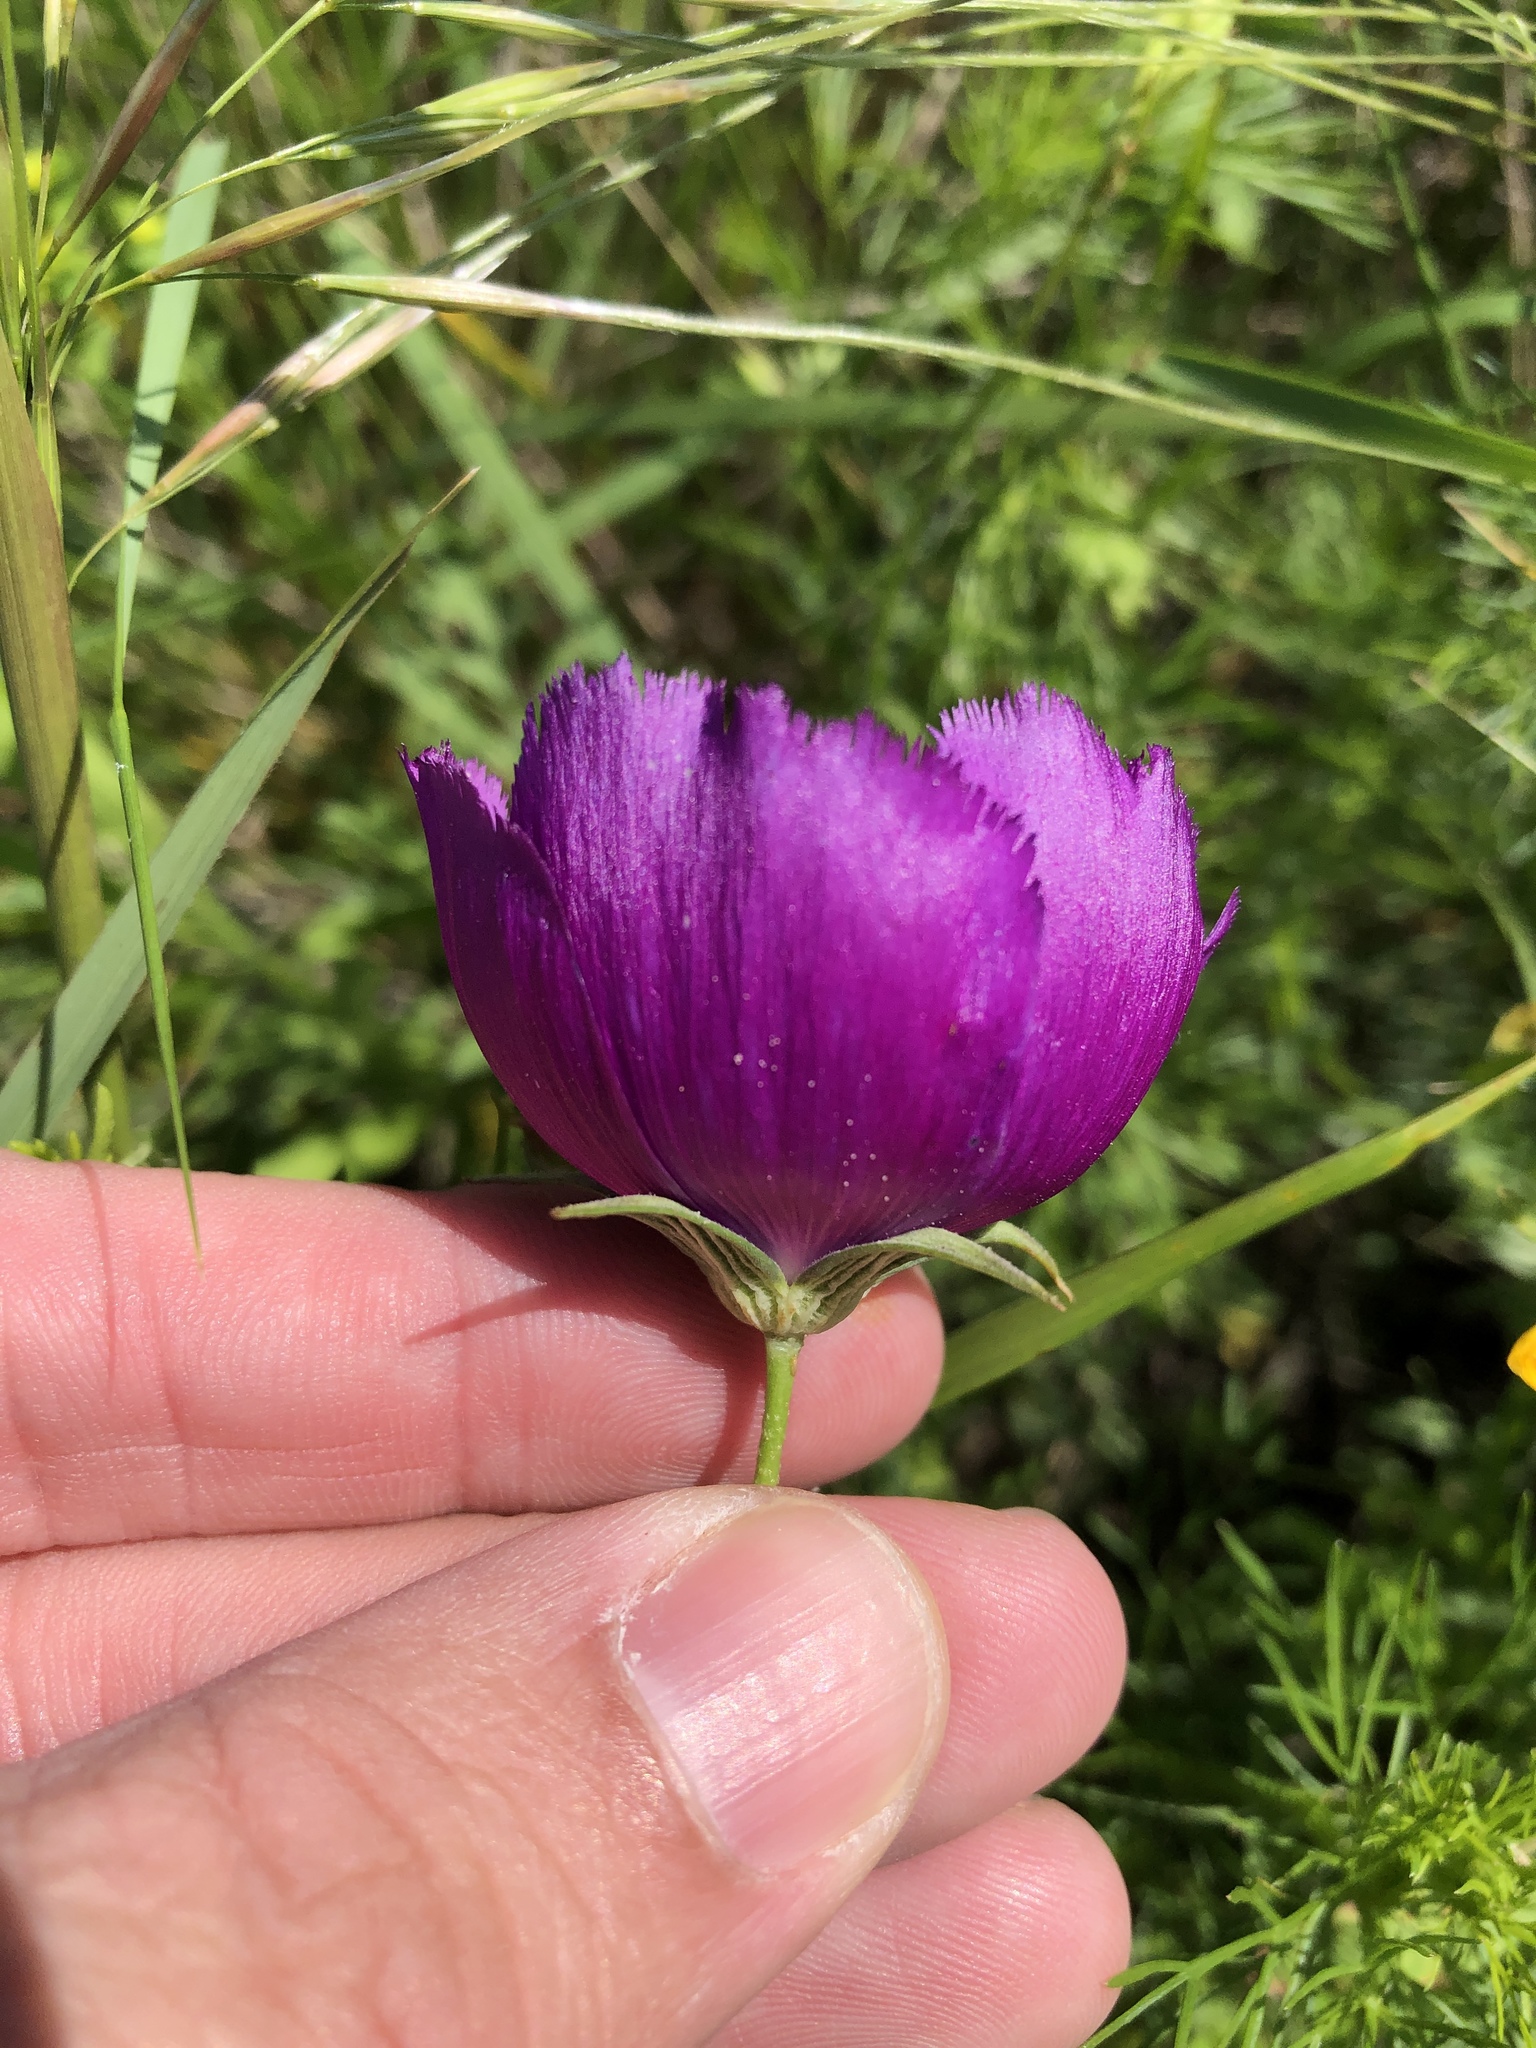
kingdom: Plantae
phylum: Tracheophyta
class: Magnoliopsida
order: Malvales
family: Malvaceae
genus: Callirhoe
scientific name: Callirhoe pedata
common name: Finger poppy-mallow
